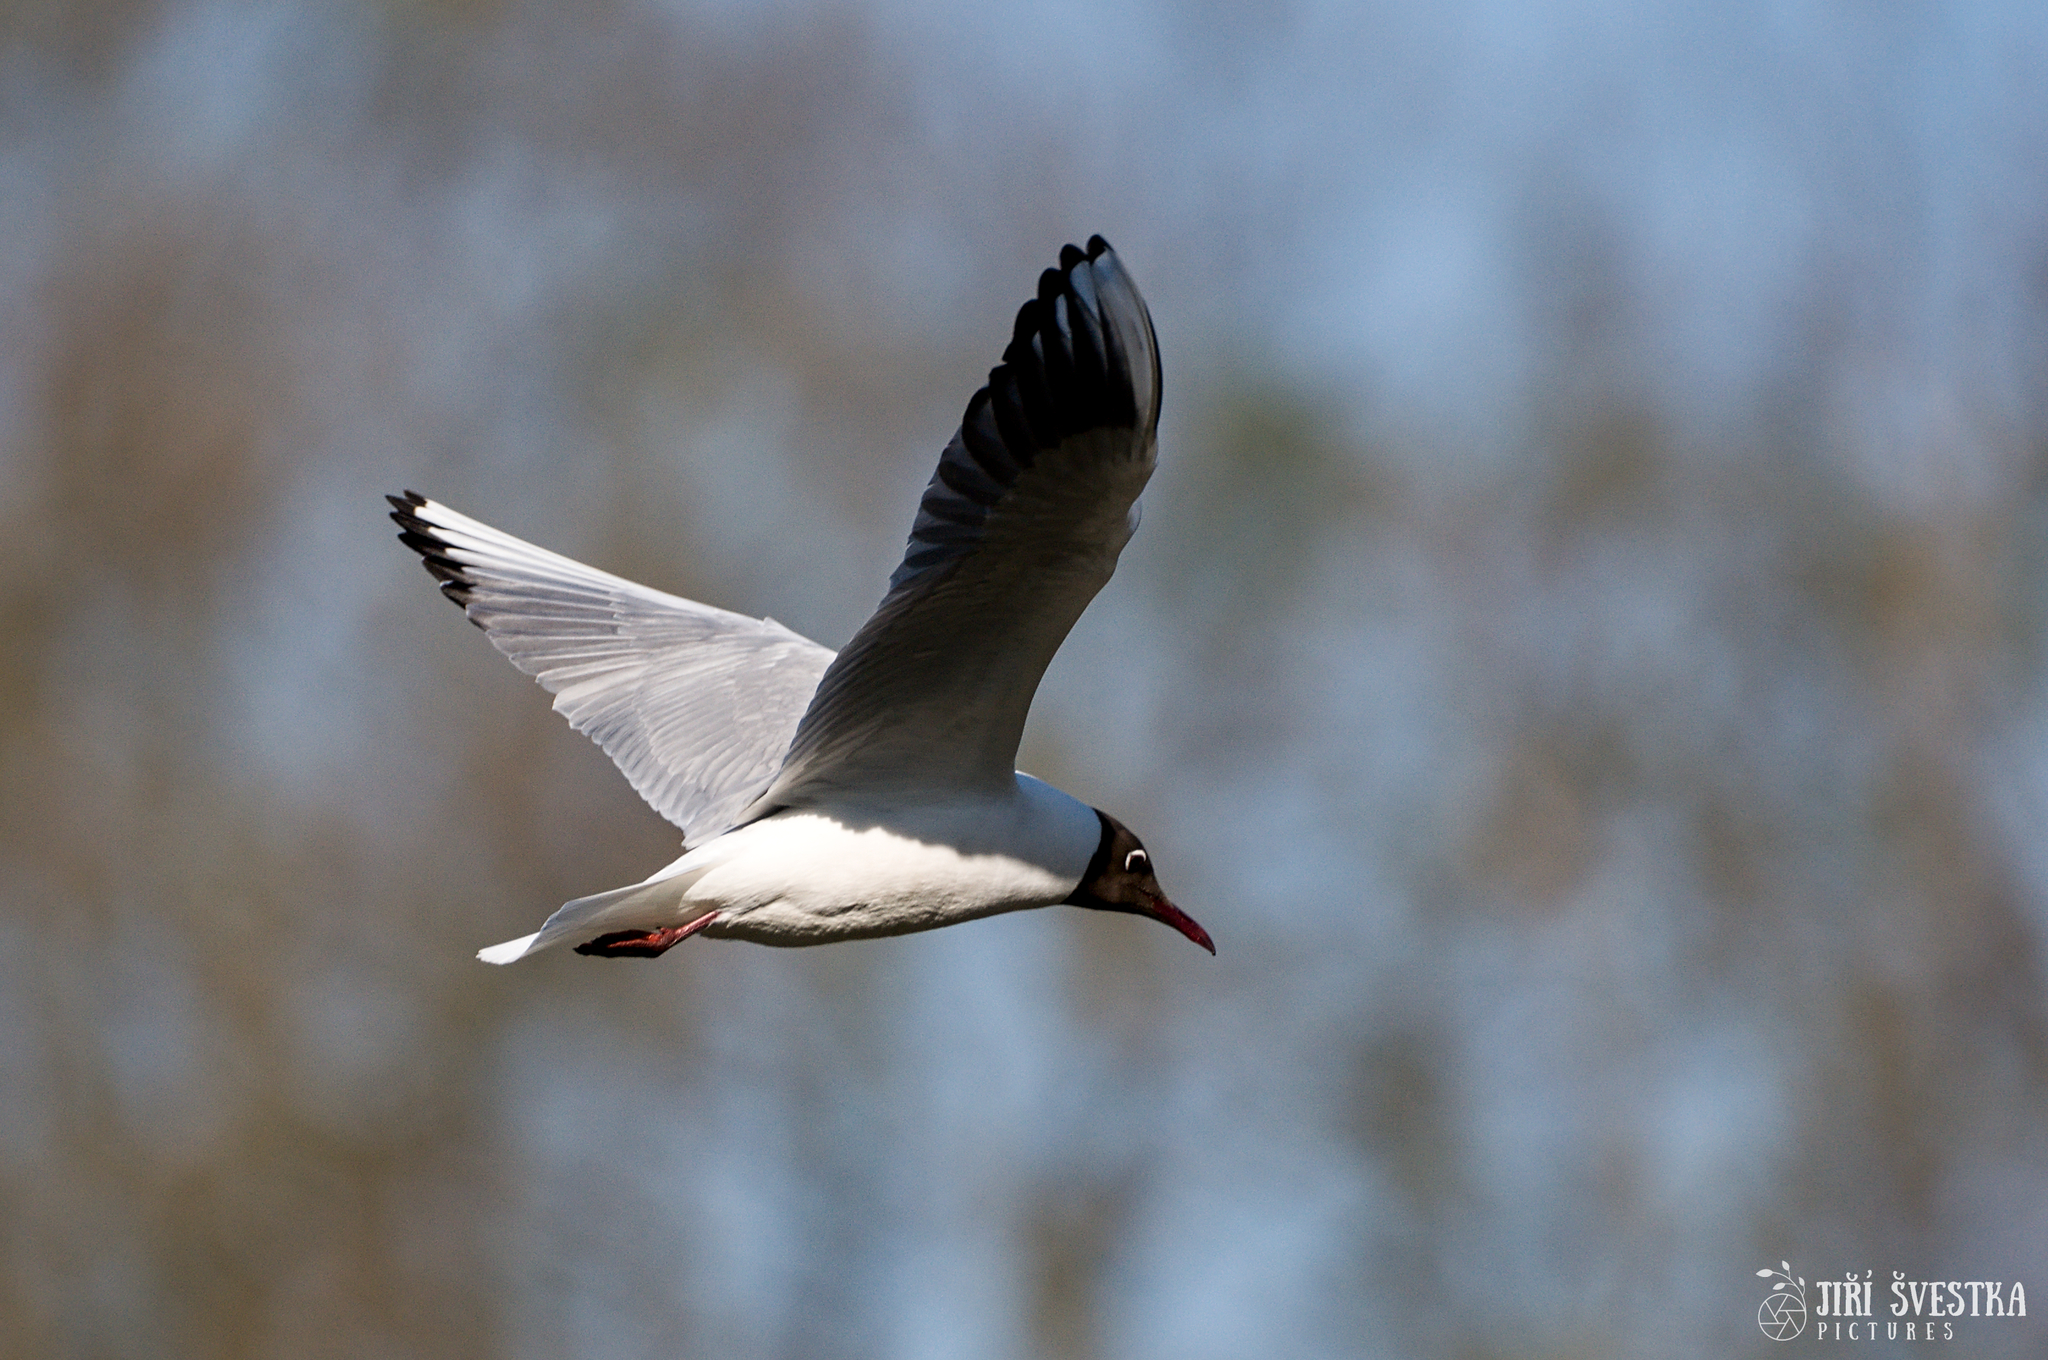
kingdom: Animalia
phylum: Chordata
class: Aves
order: Charadriiformes
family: Laridae
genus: Chroicocephalus
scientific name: Chroicocephalus ridibundus
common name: Black-headed gull
